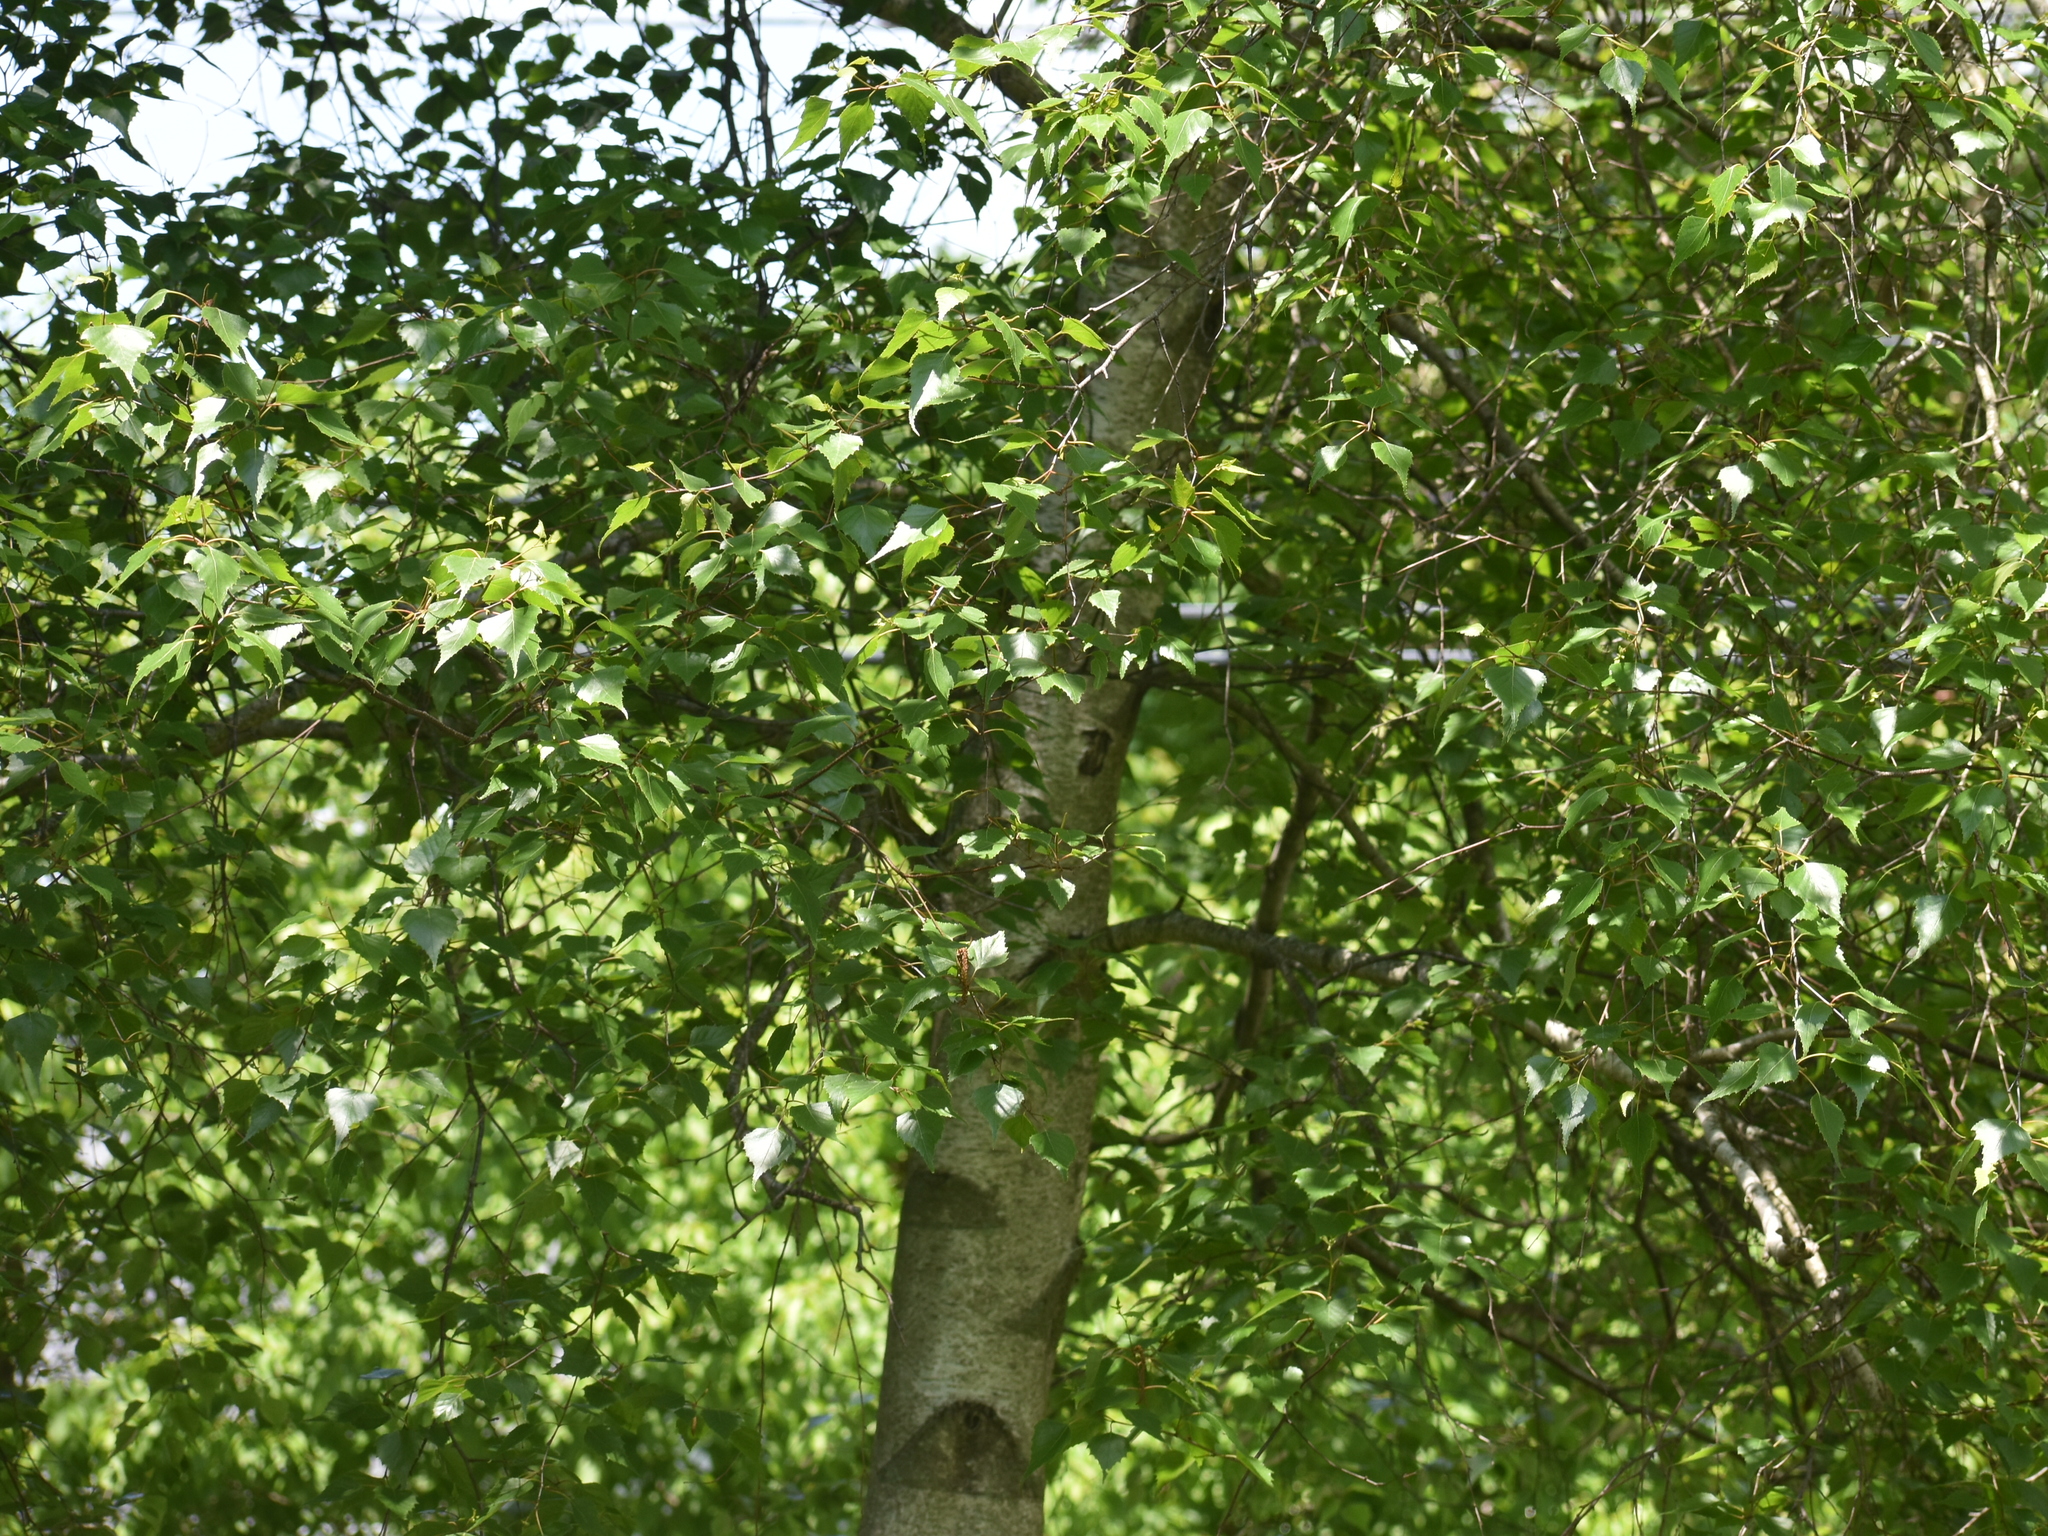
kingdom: Plantae
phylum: Tracheophyta
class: Magnoliopsida
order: Fagales
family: Betulaceae
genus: Betula
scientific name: Betula populifolia
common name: Fire birch
